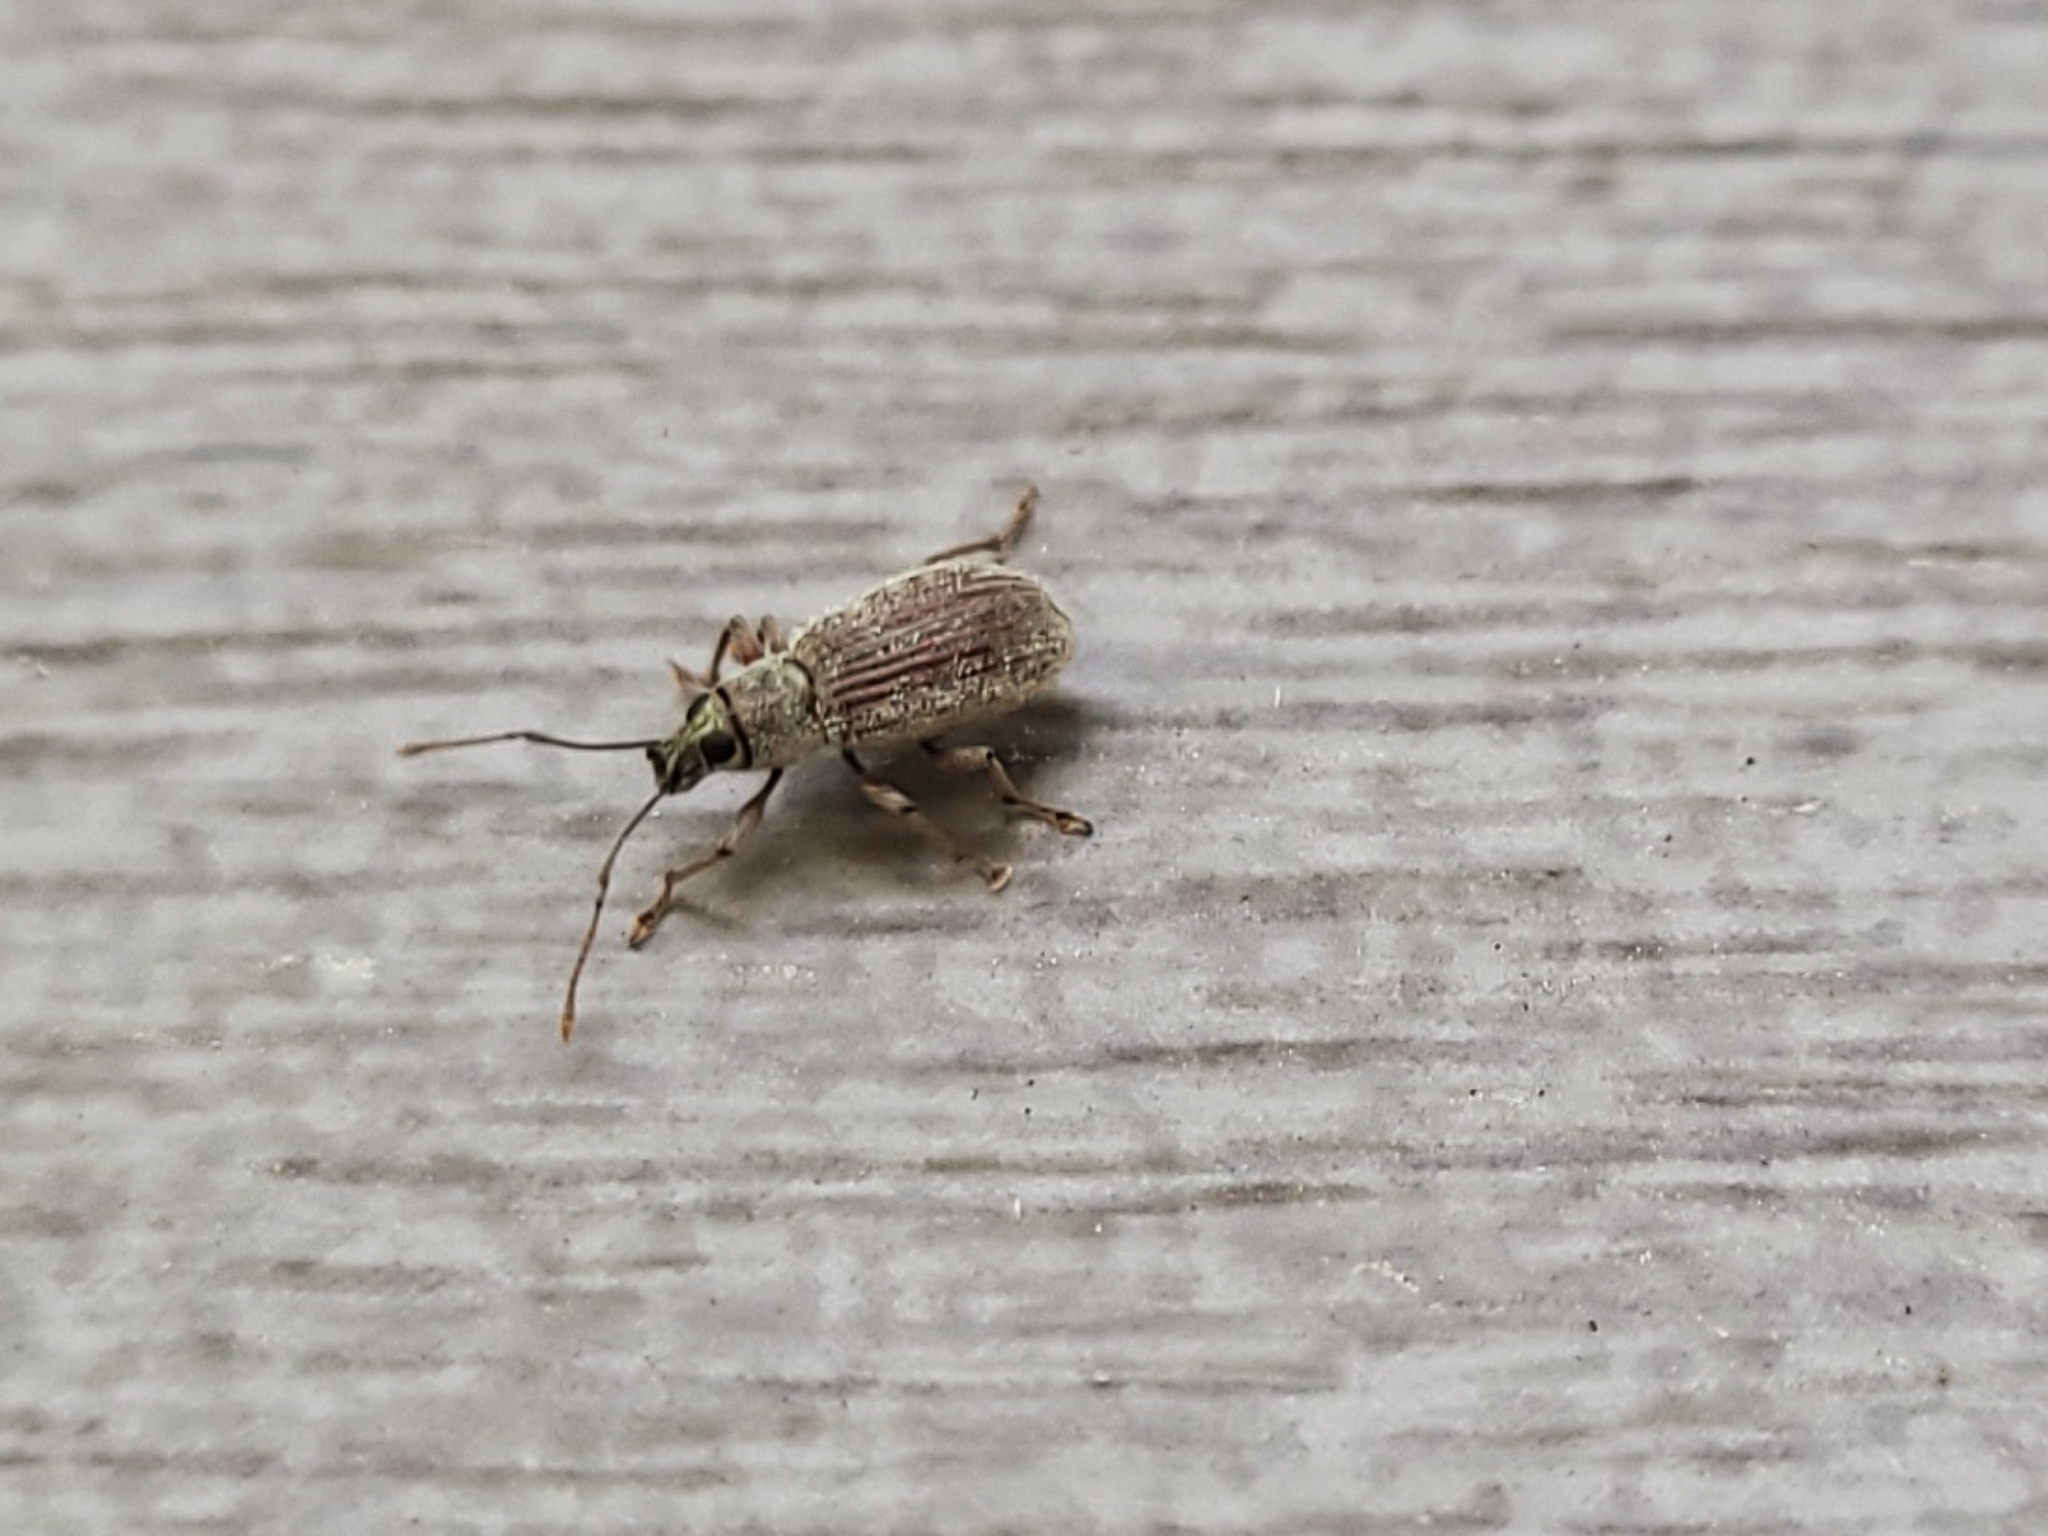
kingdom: Animalia
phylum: Arthropoda
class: Insecta
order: Coleoptera
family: Curculionidae
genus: Cyrtepistomus
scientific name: Cyrtepistomus castaneus
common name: Weevil
